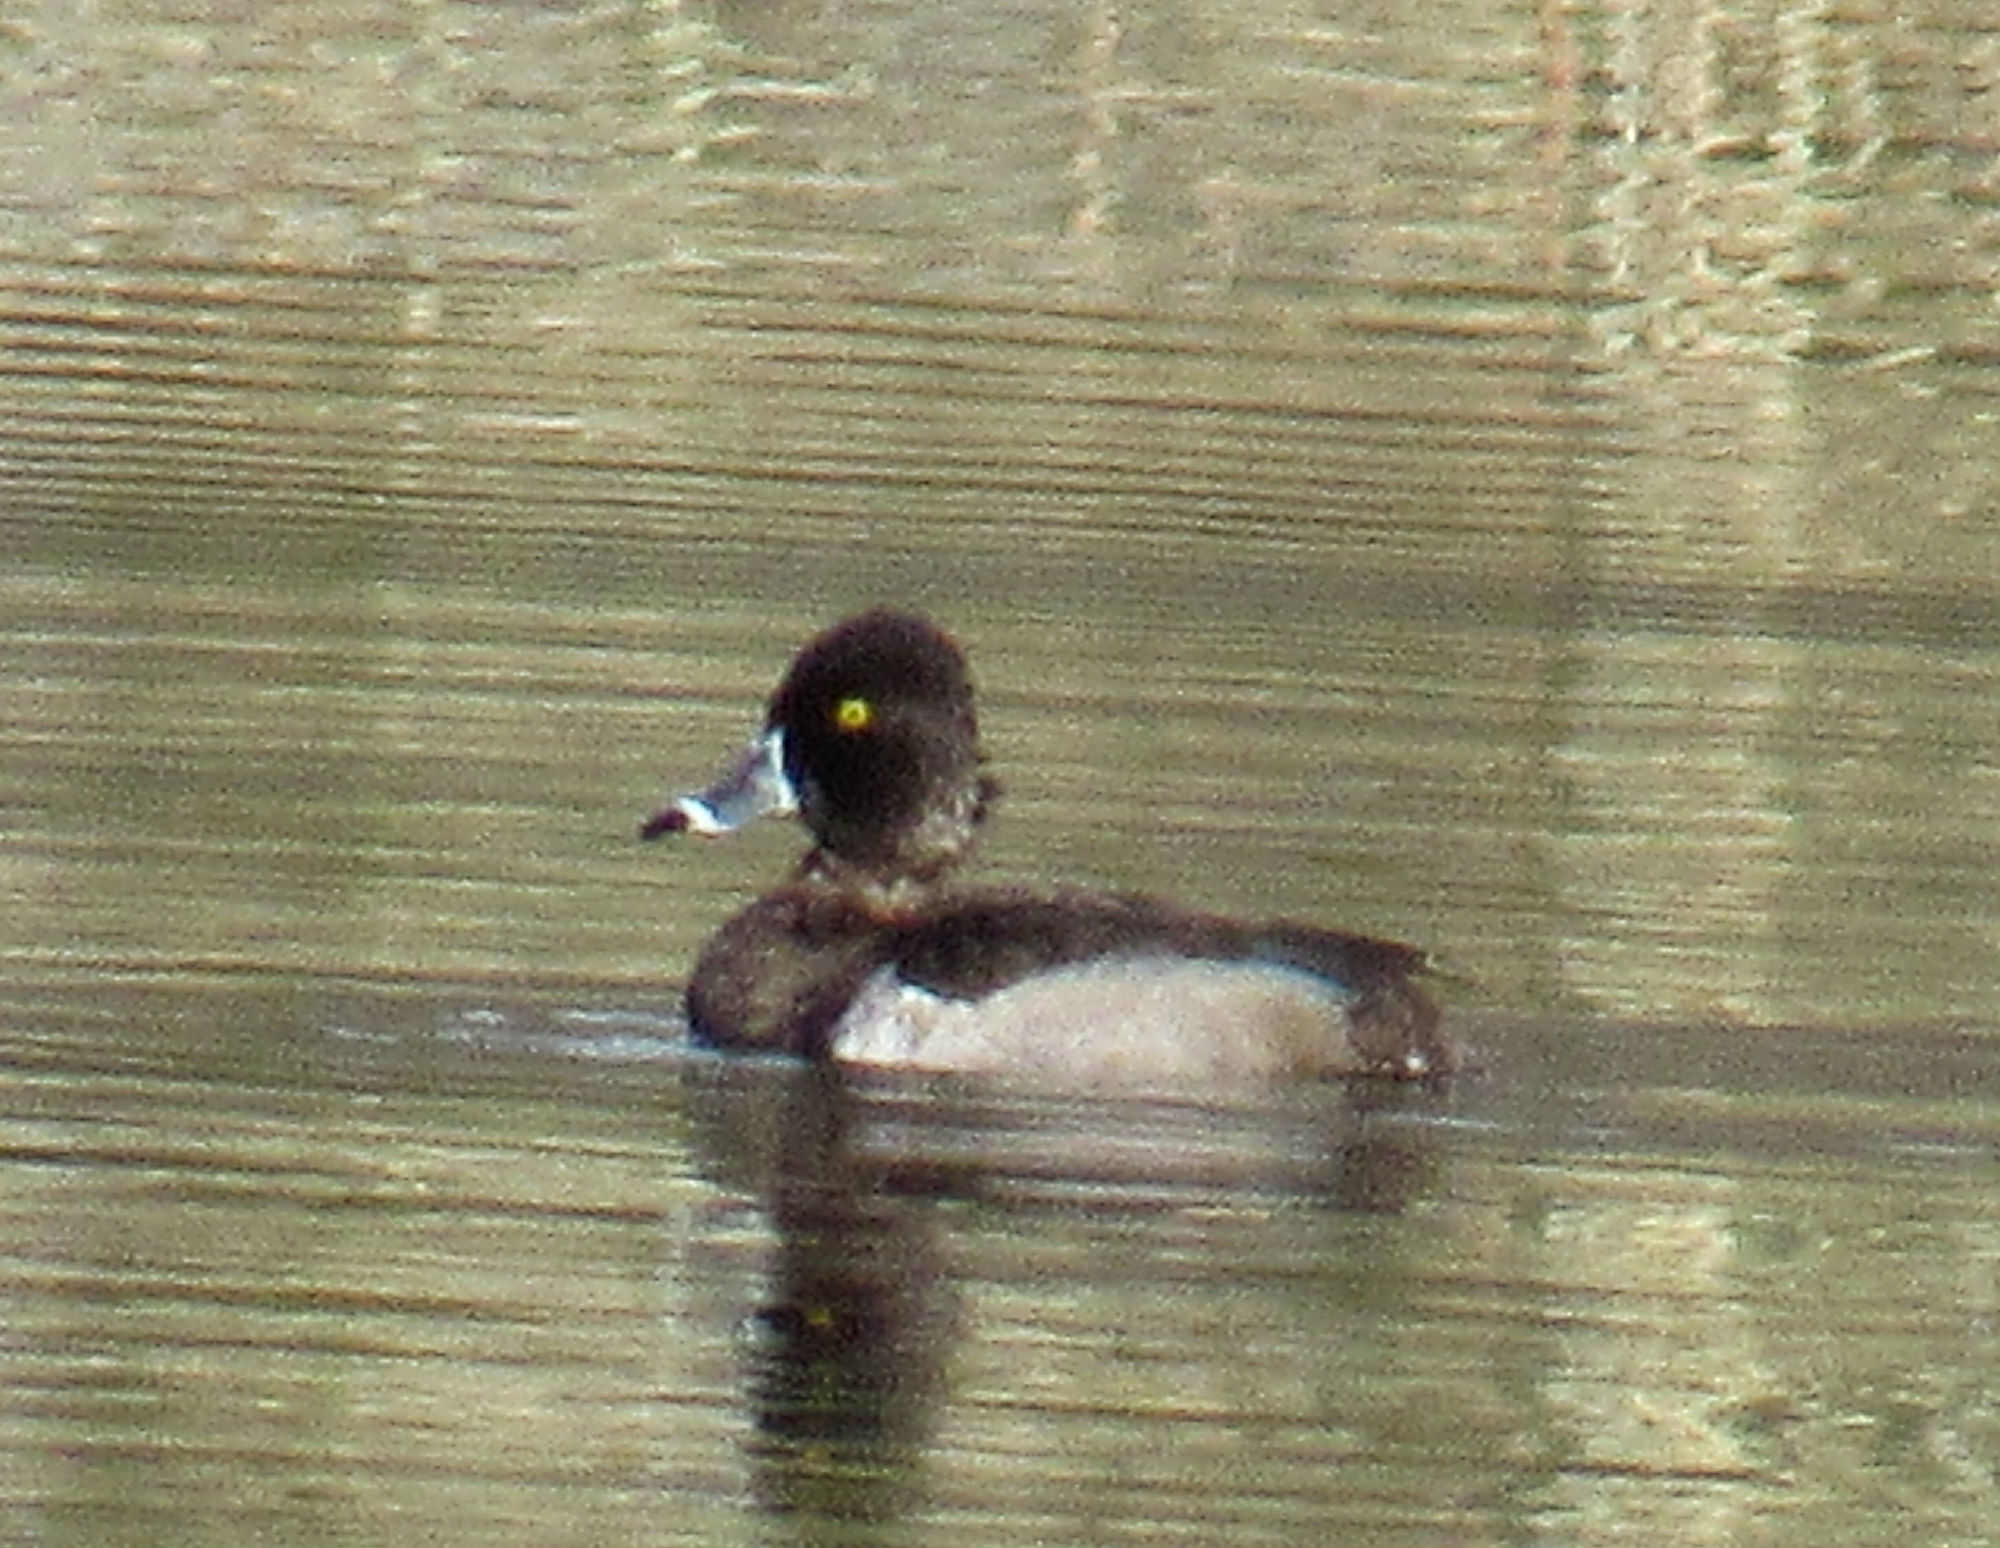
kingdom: Animalia
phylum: Chordata
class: Aves
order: Anseriformes
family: Anatidae
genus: Aythya
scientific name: Aythya collaris
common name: Ring-necked duck
